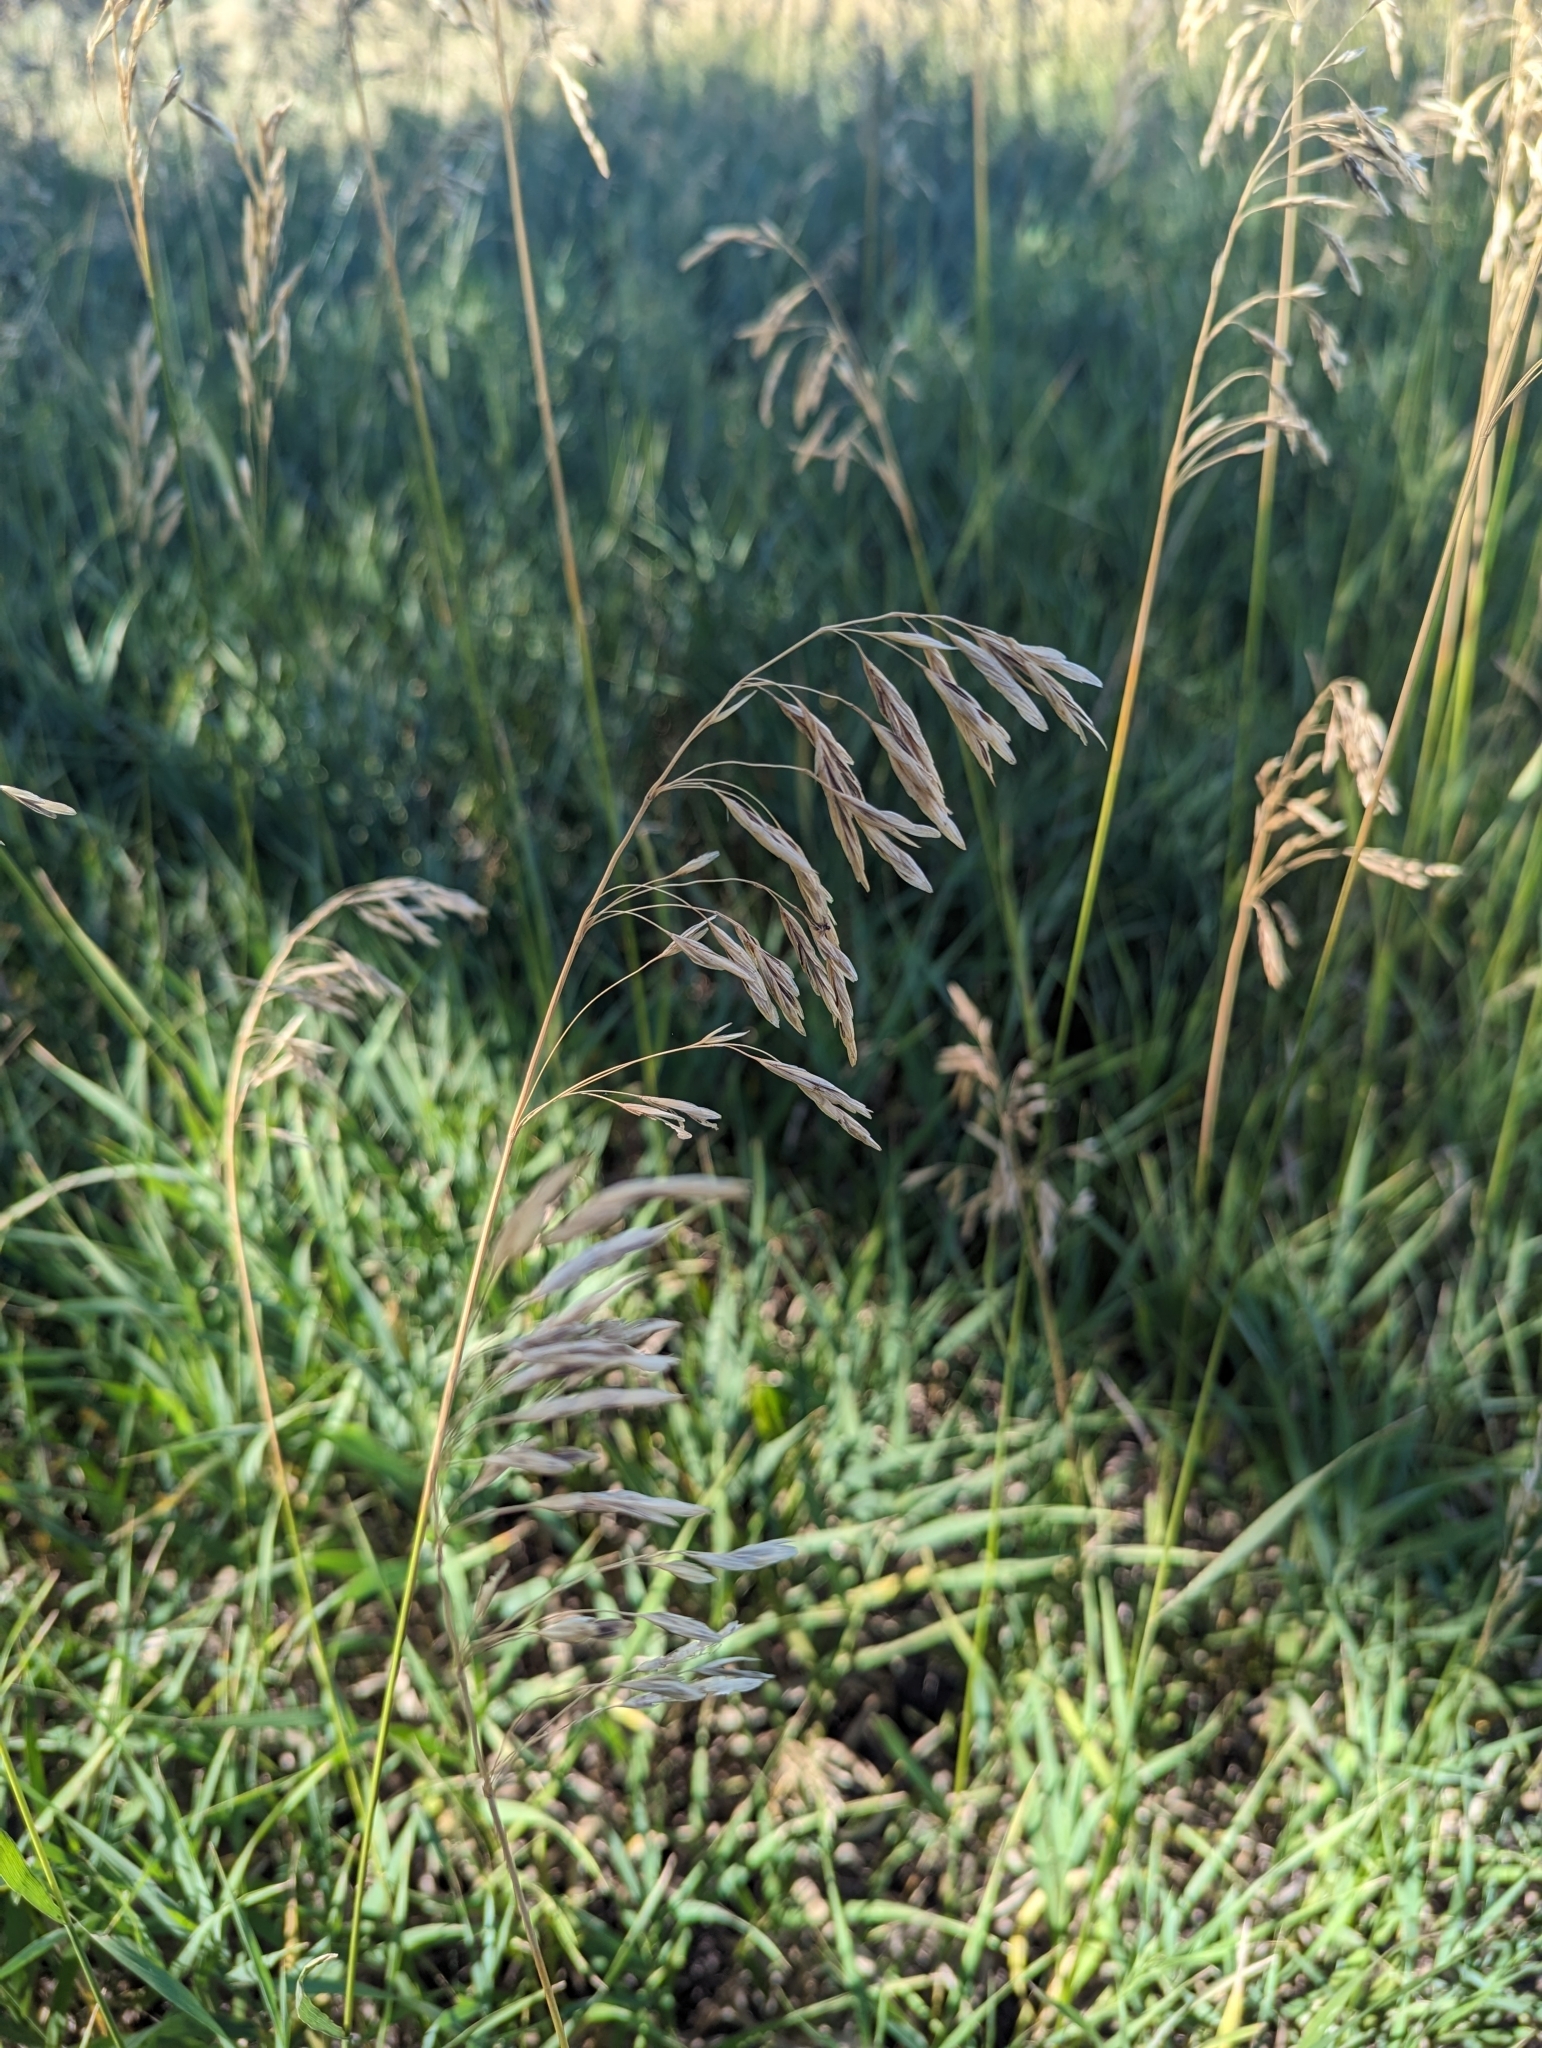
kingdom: Plantae
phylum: Tracheophyta
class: Liliopsida
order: Poales
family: Poaceae
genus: Bromus
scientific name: Bromus inermis
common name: Smooth brome
